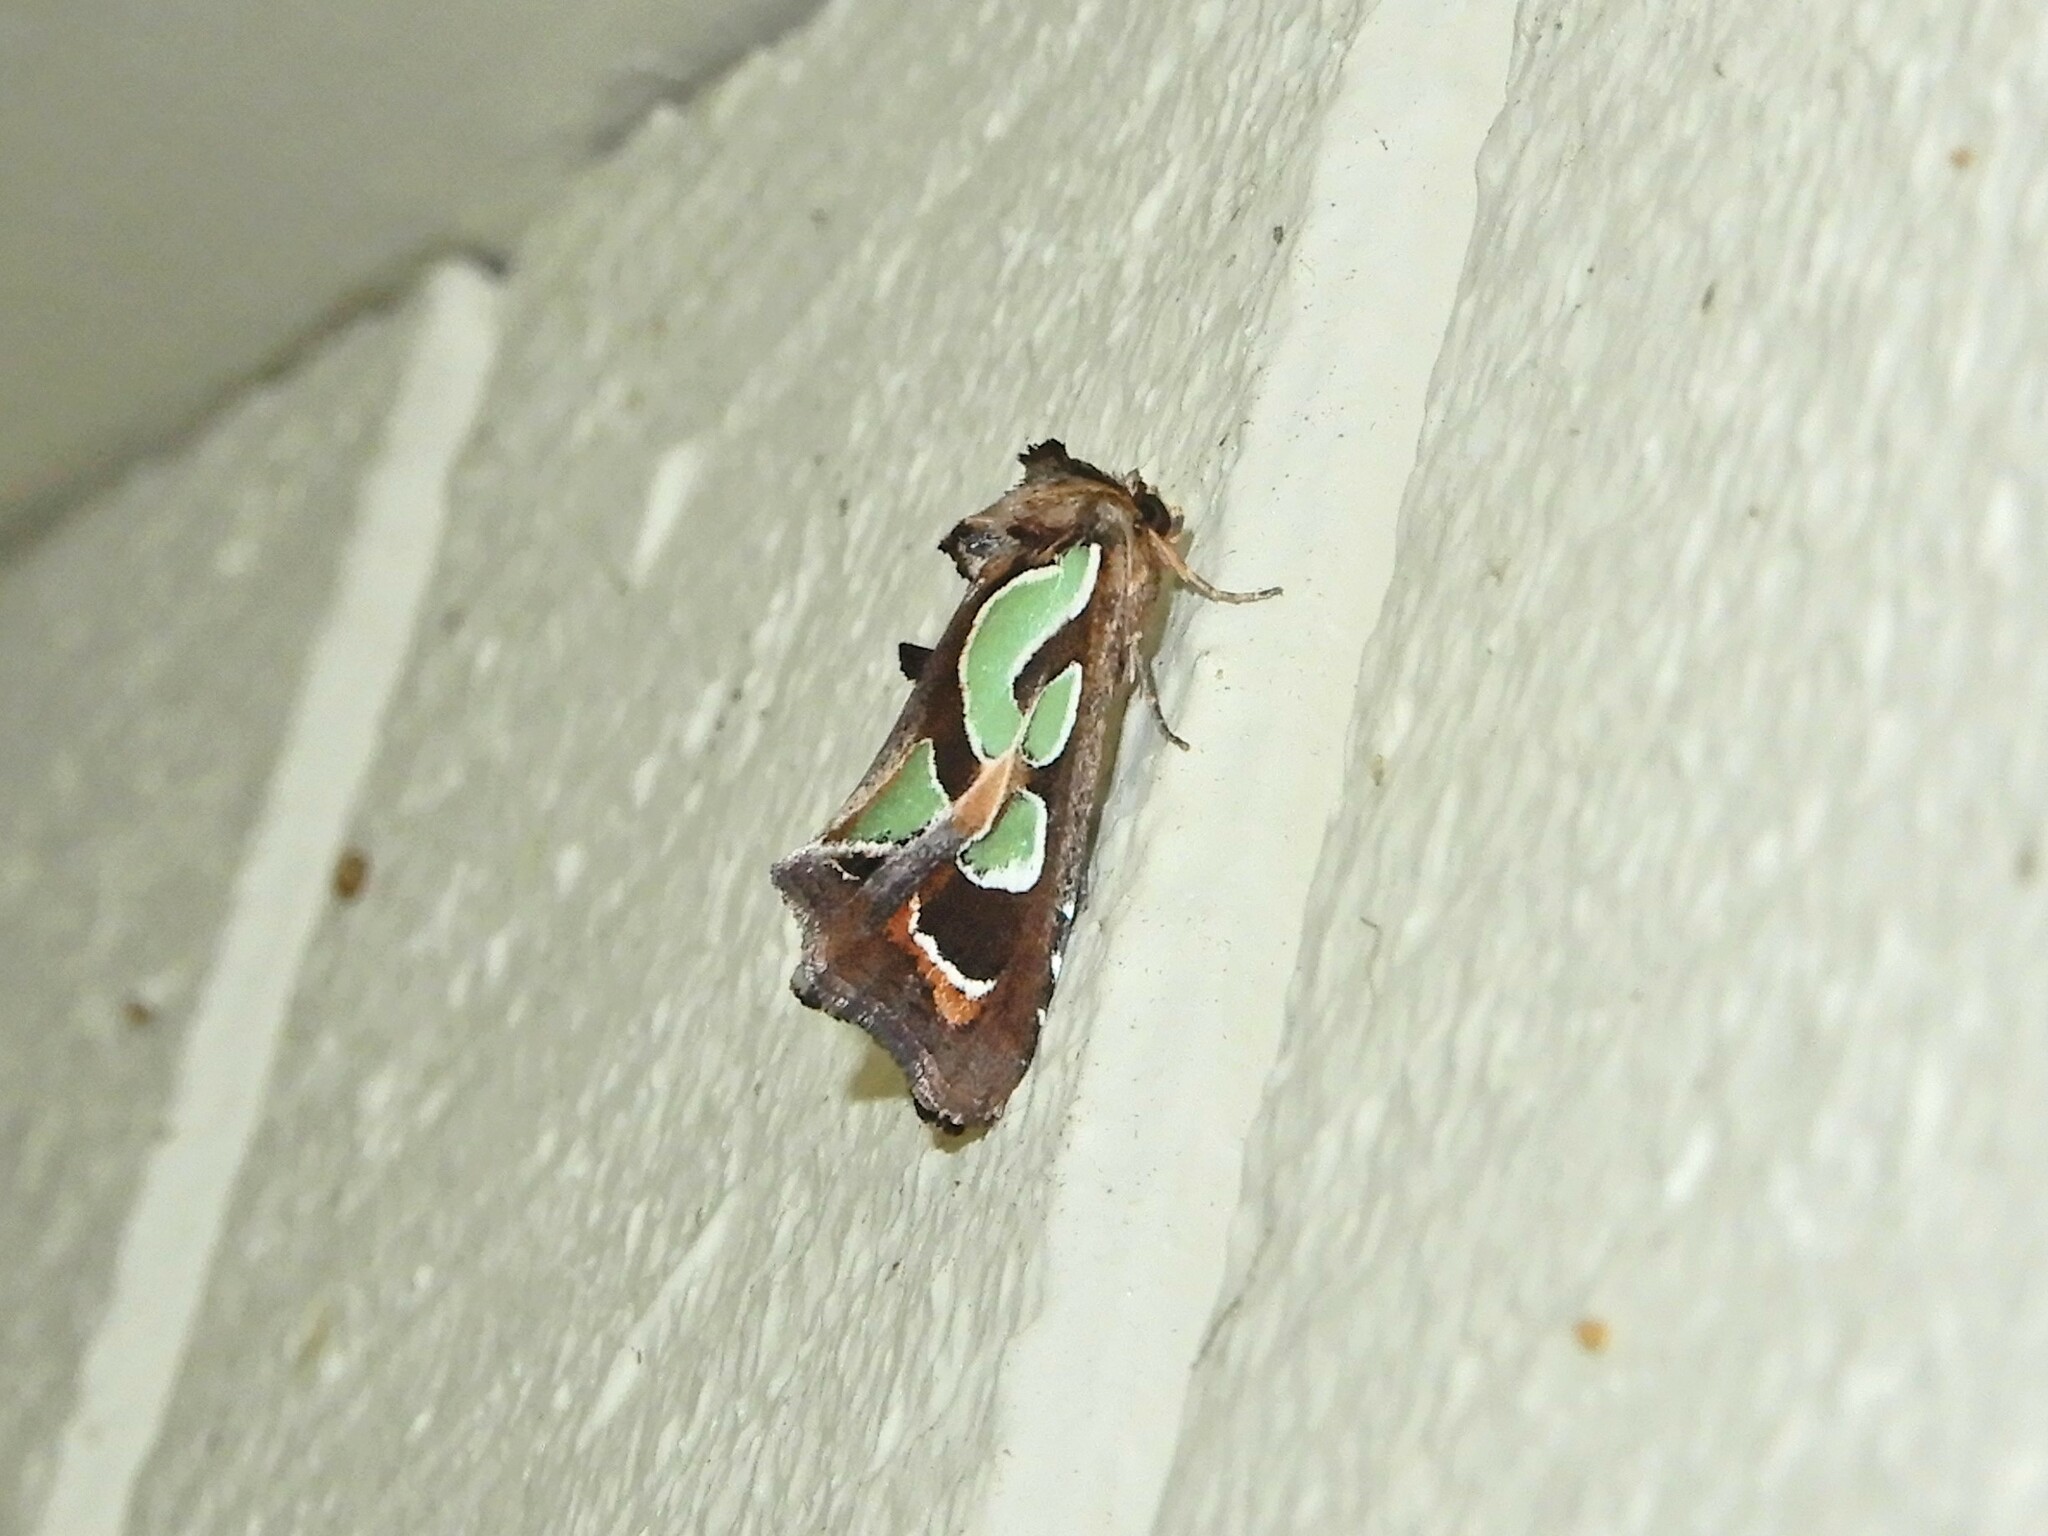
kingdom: Animalia
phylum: Arthropoda
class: Insecta
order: Lepidoptera
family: Noctuidae
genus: Cosmodes
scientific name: Cosmodes elegans
